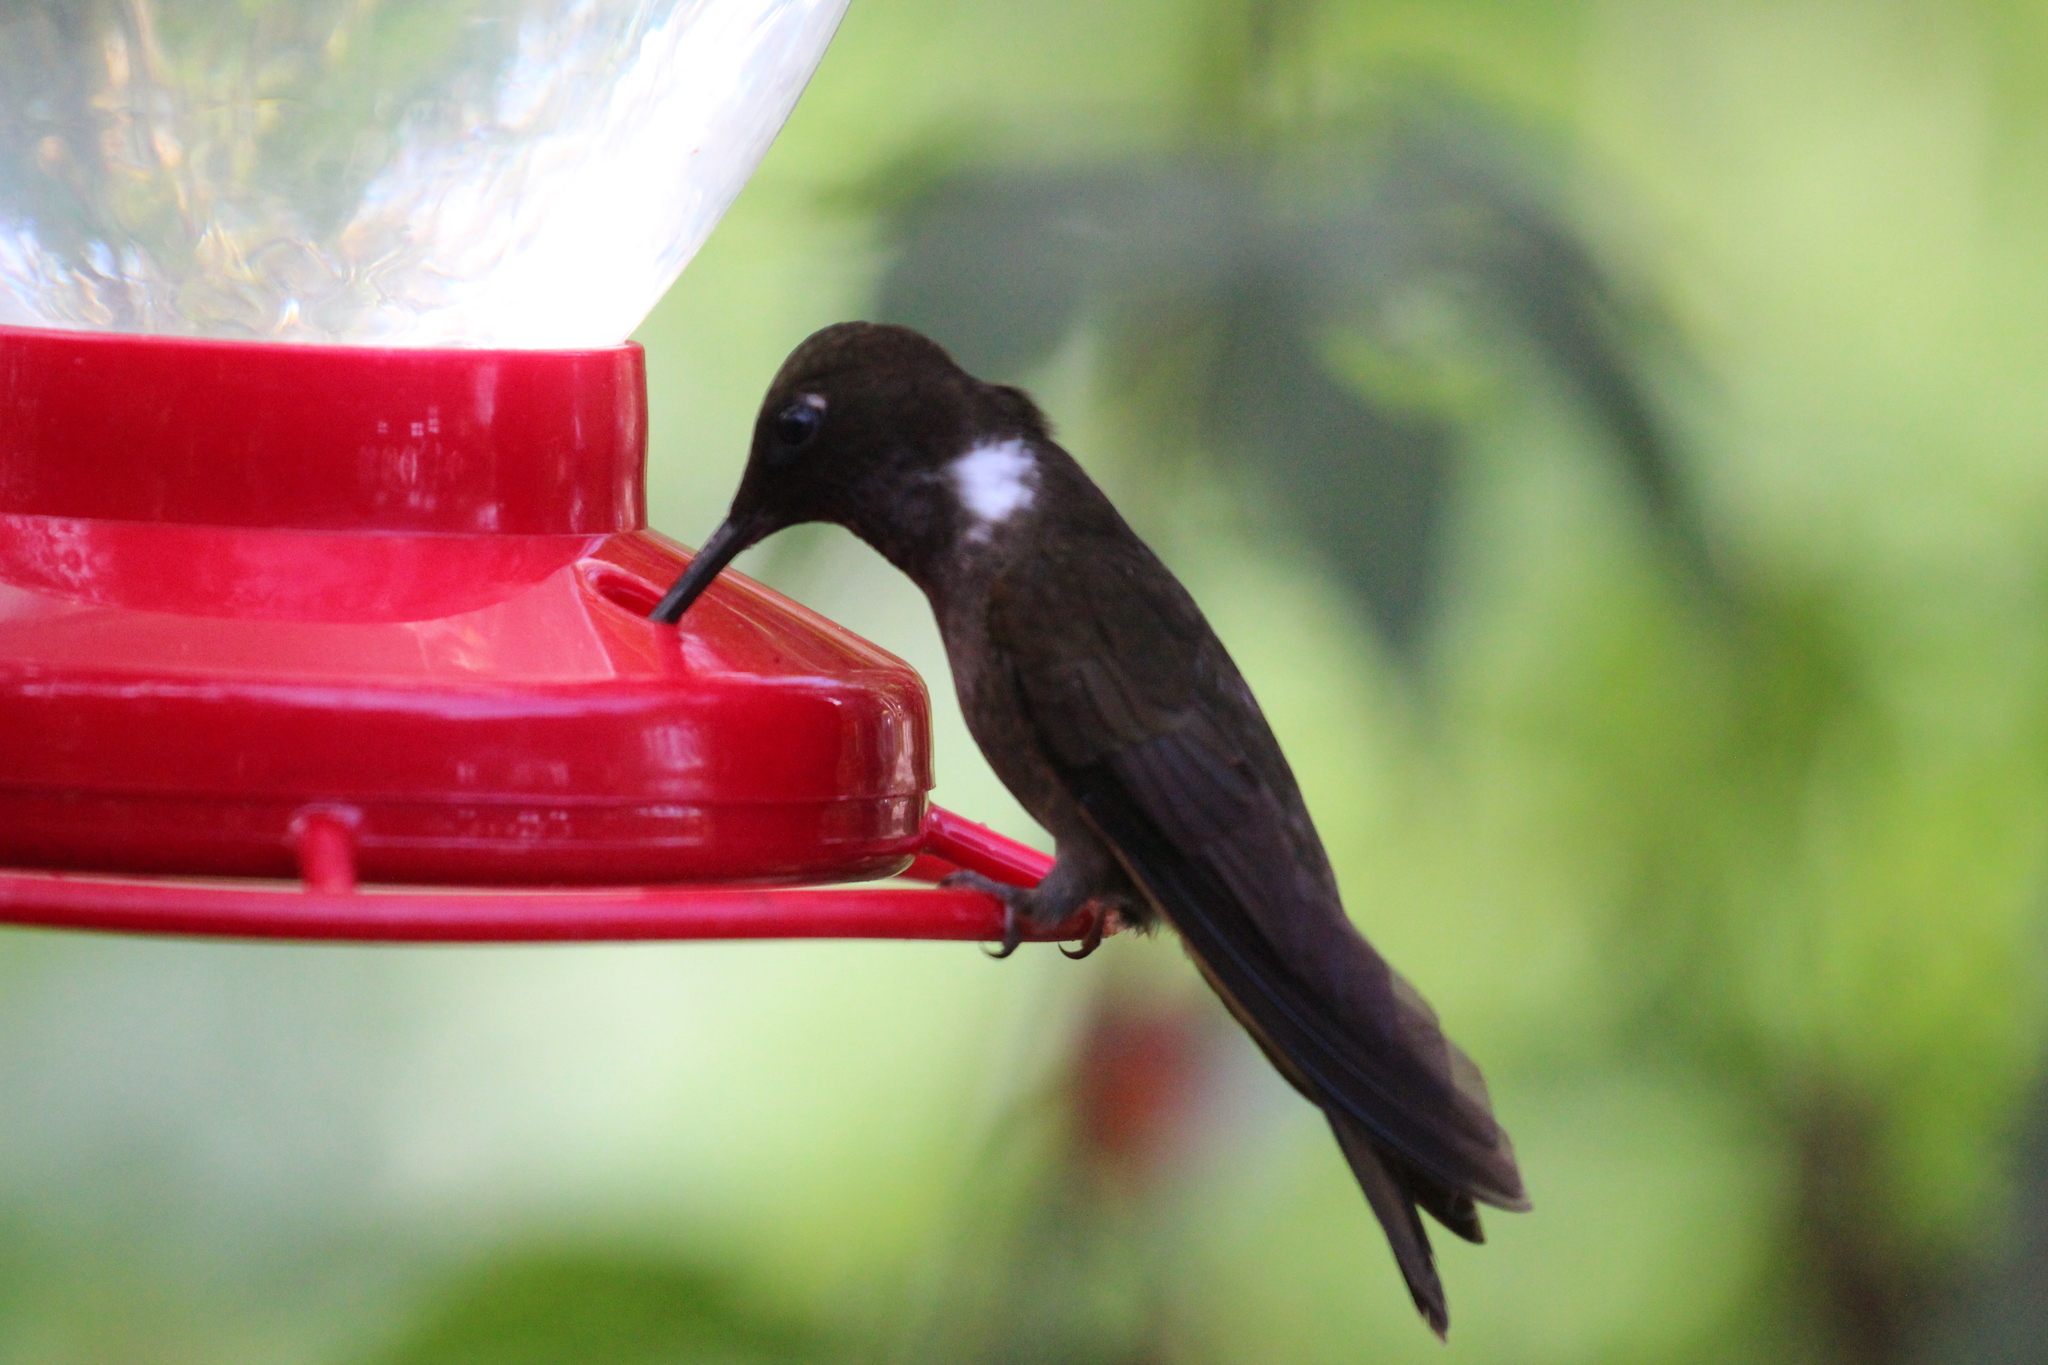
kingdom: Animalia
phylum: Chordata
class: Aves
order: Apodiformes
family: Trochilidae
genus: Coeligena
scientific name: Coeligena wilsoni
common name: Brown inca
